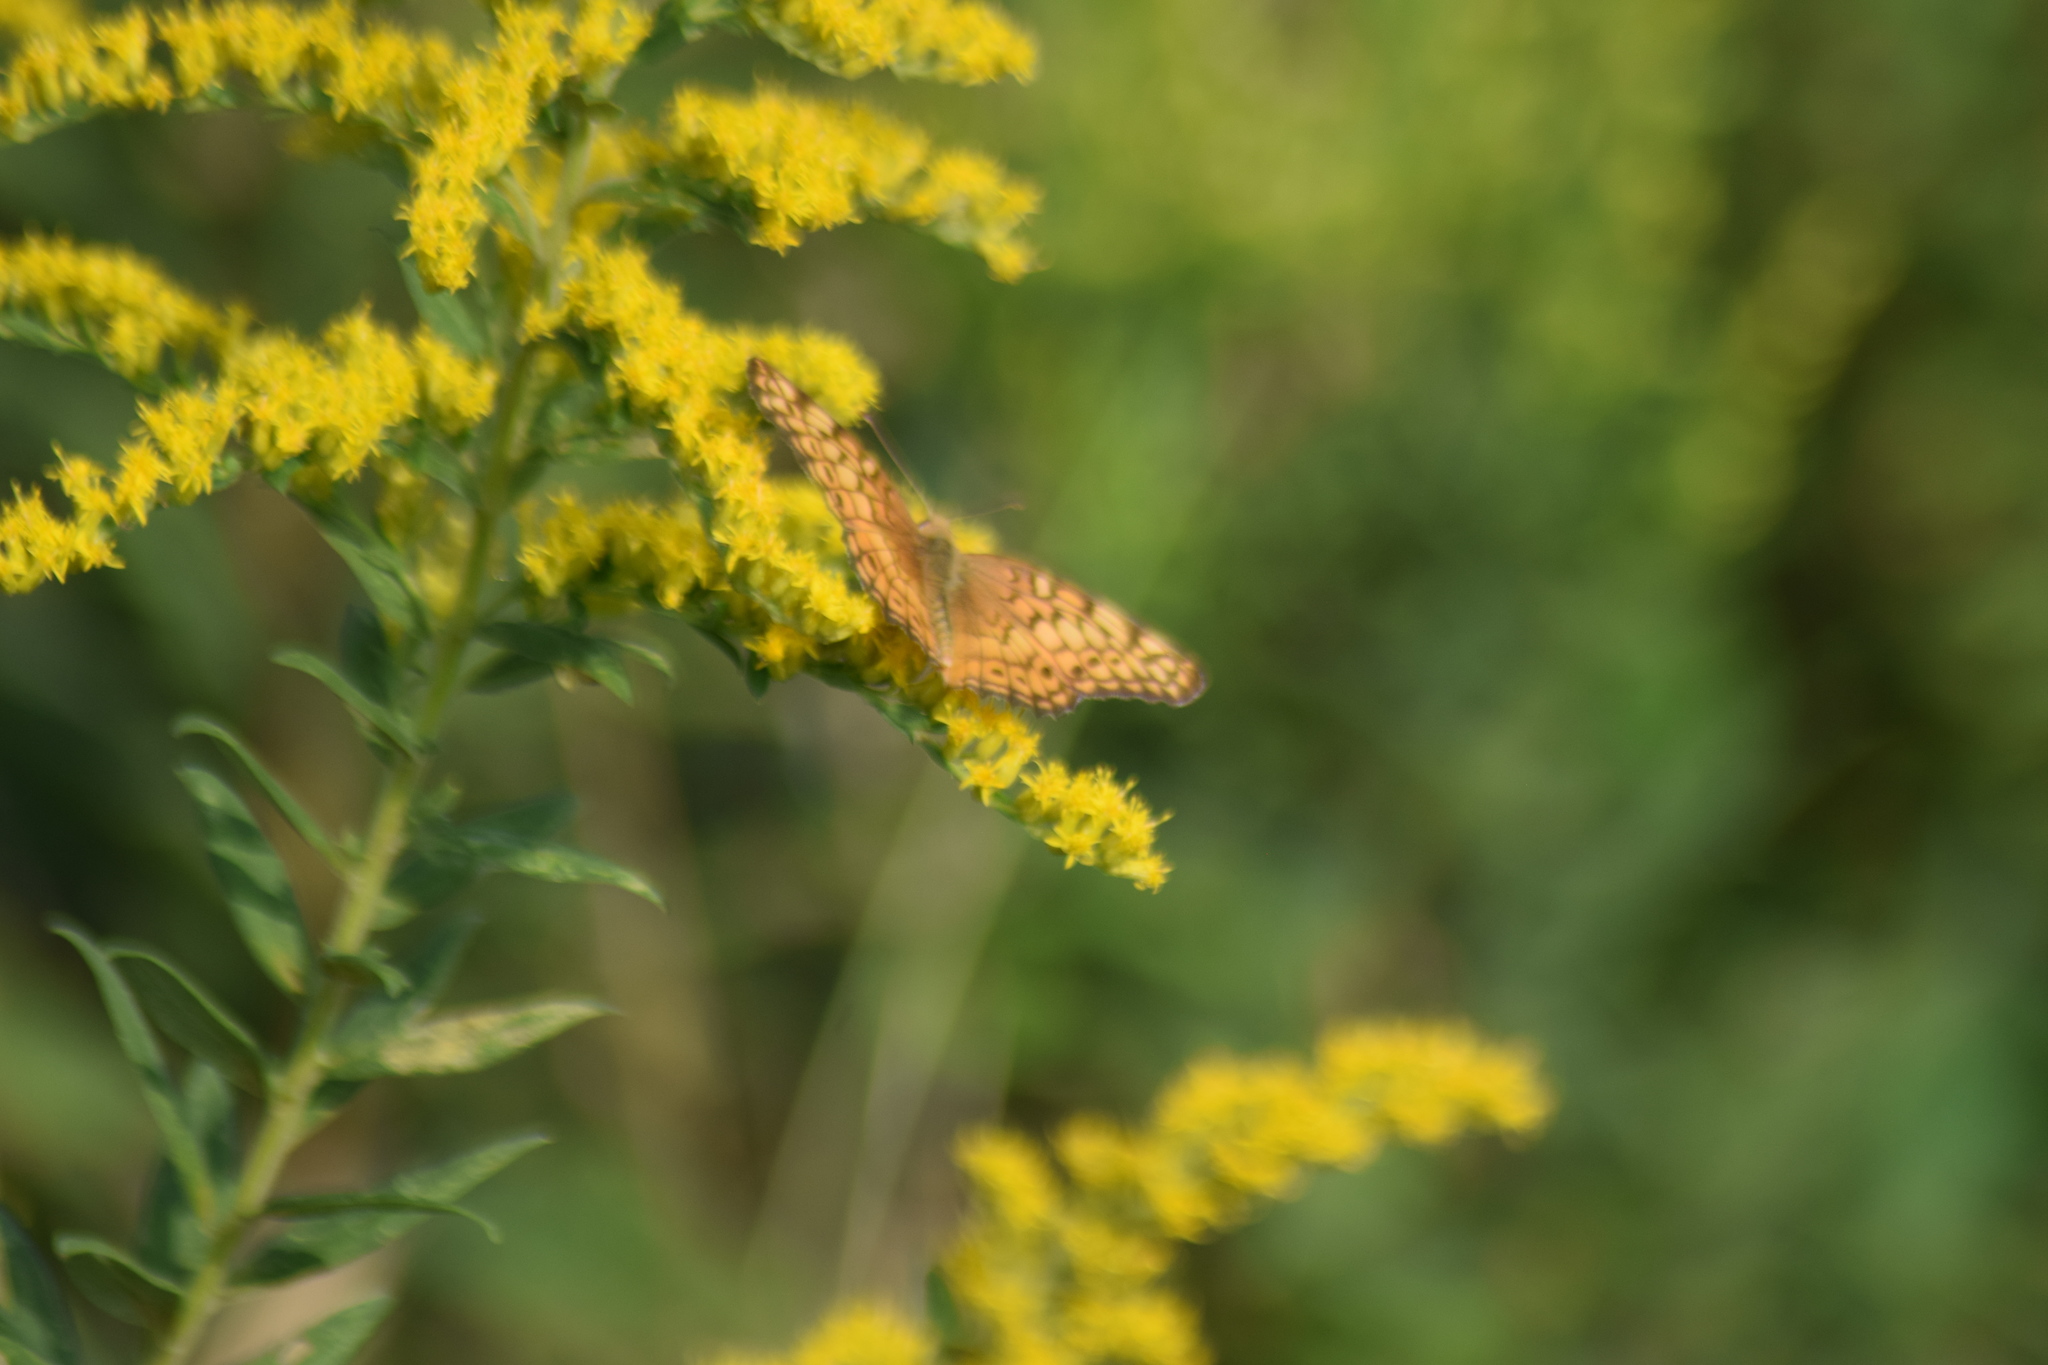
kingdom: Animalia
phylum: Arthropoda
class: Insecta
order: Lepidoptera
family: Nymphalidae
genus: Euptoieta
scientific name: Euptoieta claudia
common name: Variegated fritillary
